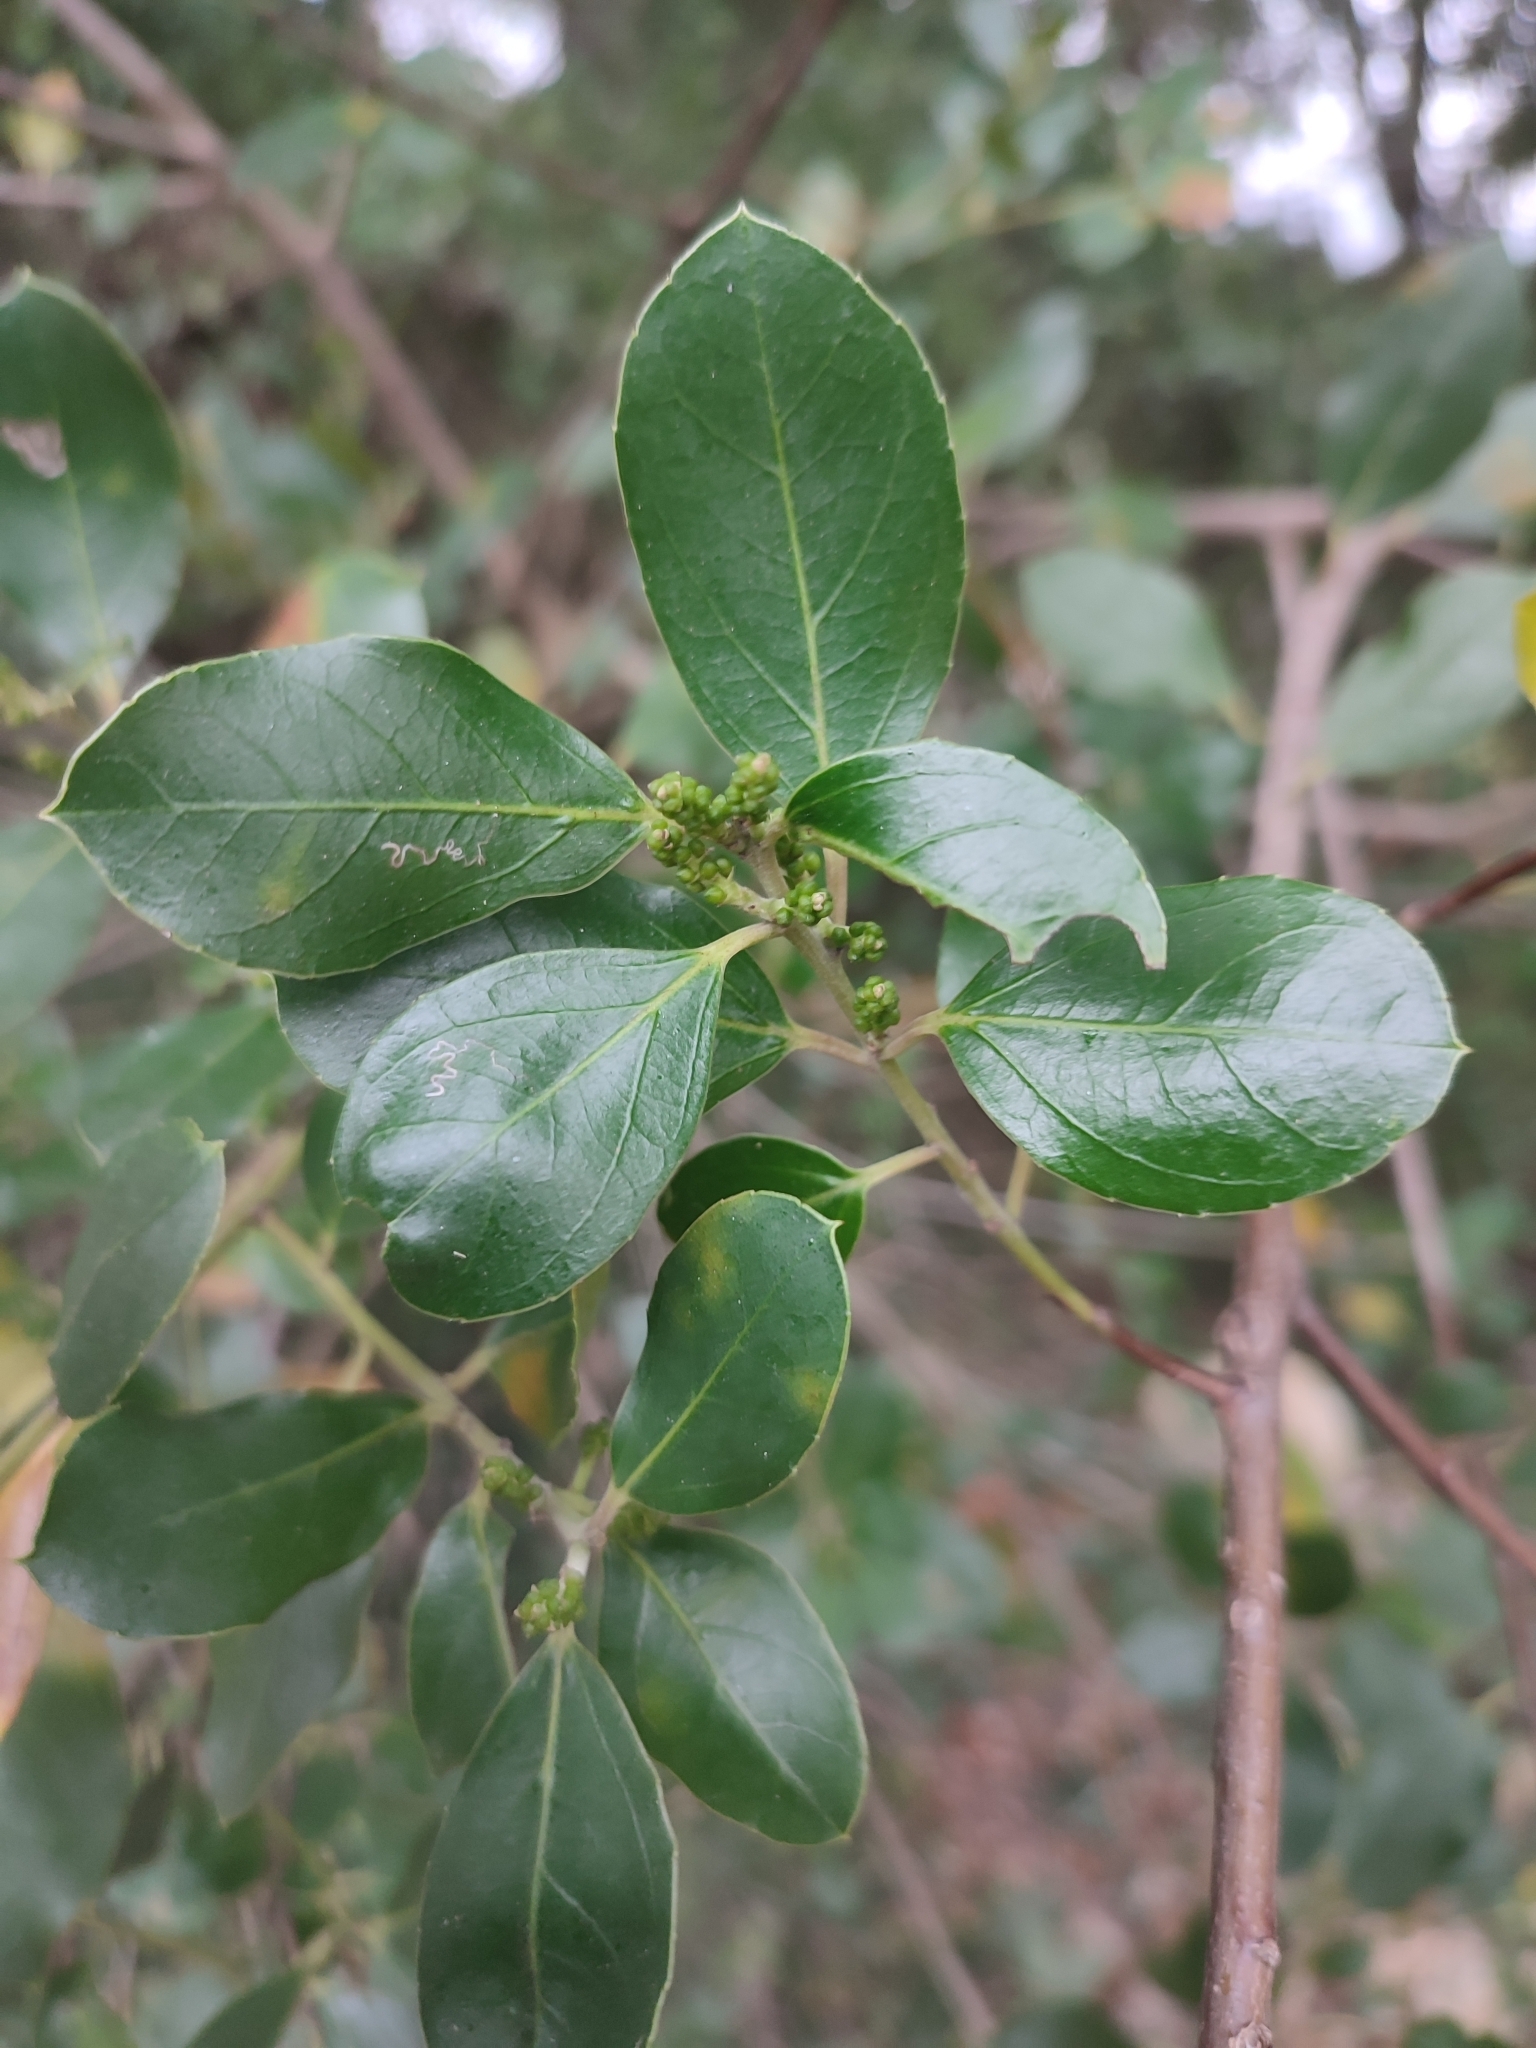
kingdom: Plantae
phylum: Tracheophyta
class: Magnoliopsida
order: Rosales
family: Rhamnaceae
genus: Rhamnus
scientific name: Rhamnus alaternus
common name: Mediterranean buckthorn
